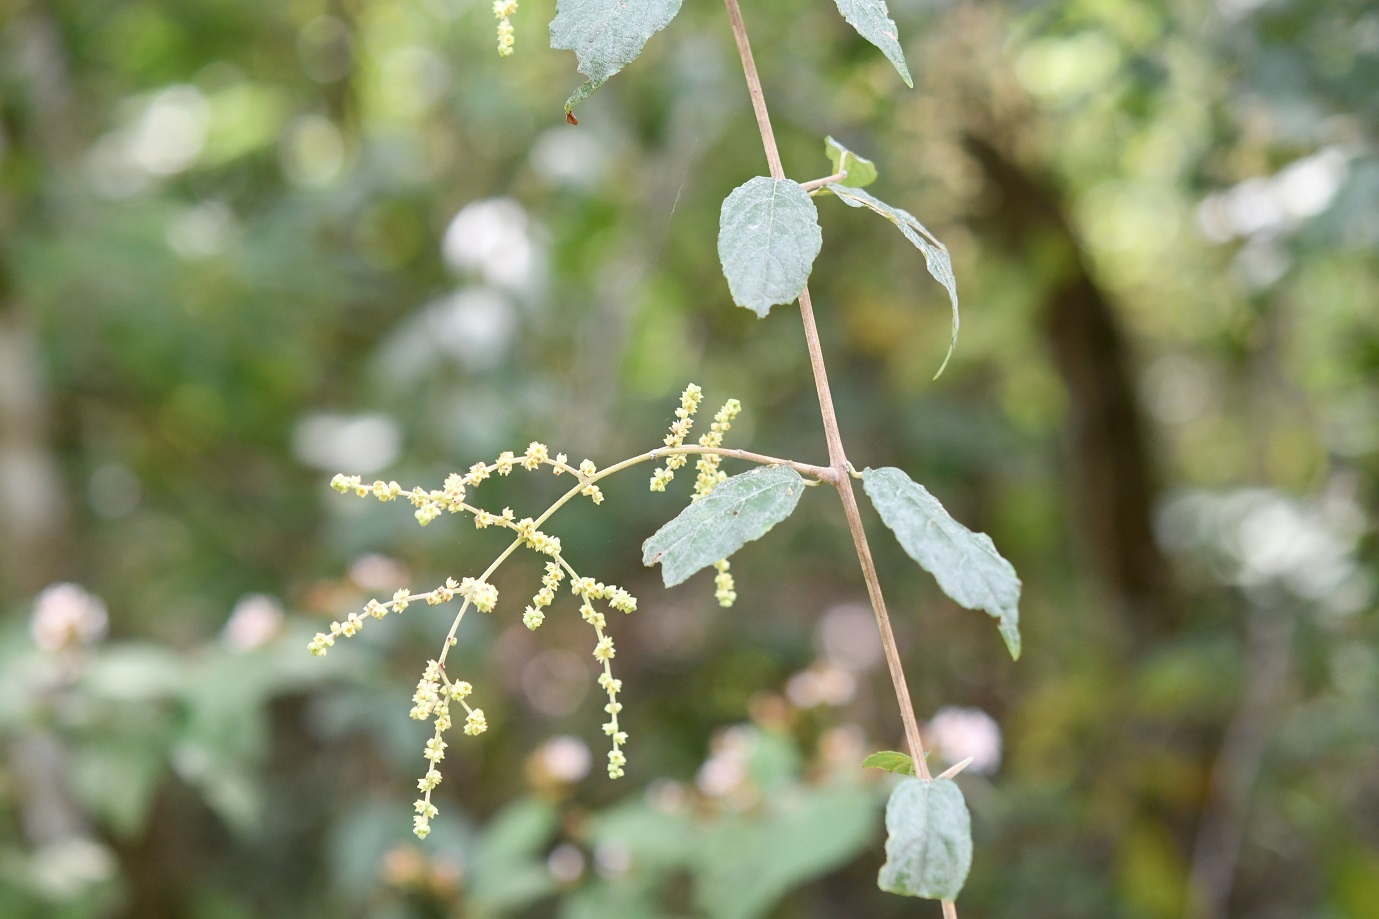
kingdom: Plantae
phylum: Tracheophyta
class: Magnoliopsida
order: Rosales
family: Rhamnaceae
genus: Sageretia
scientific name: Sageretia elegans
